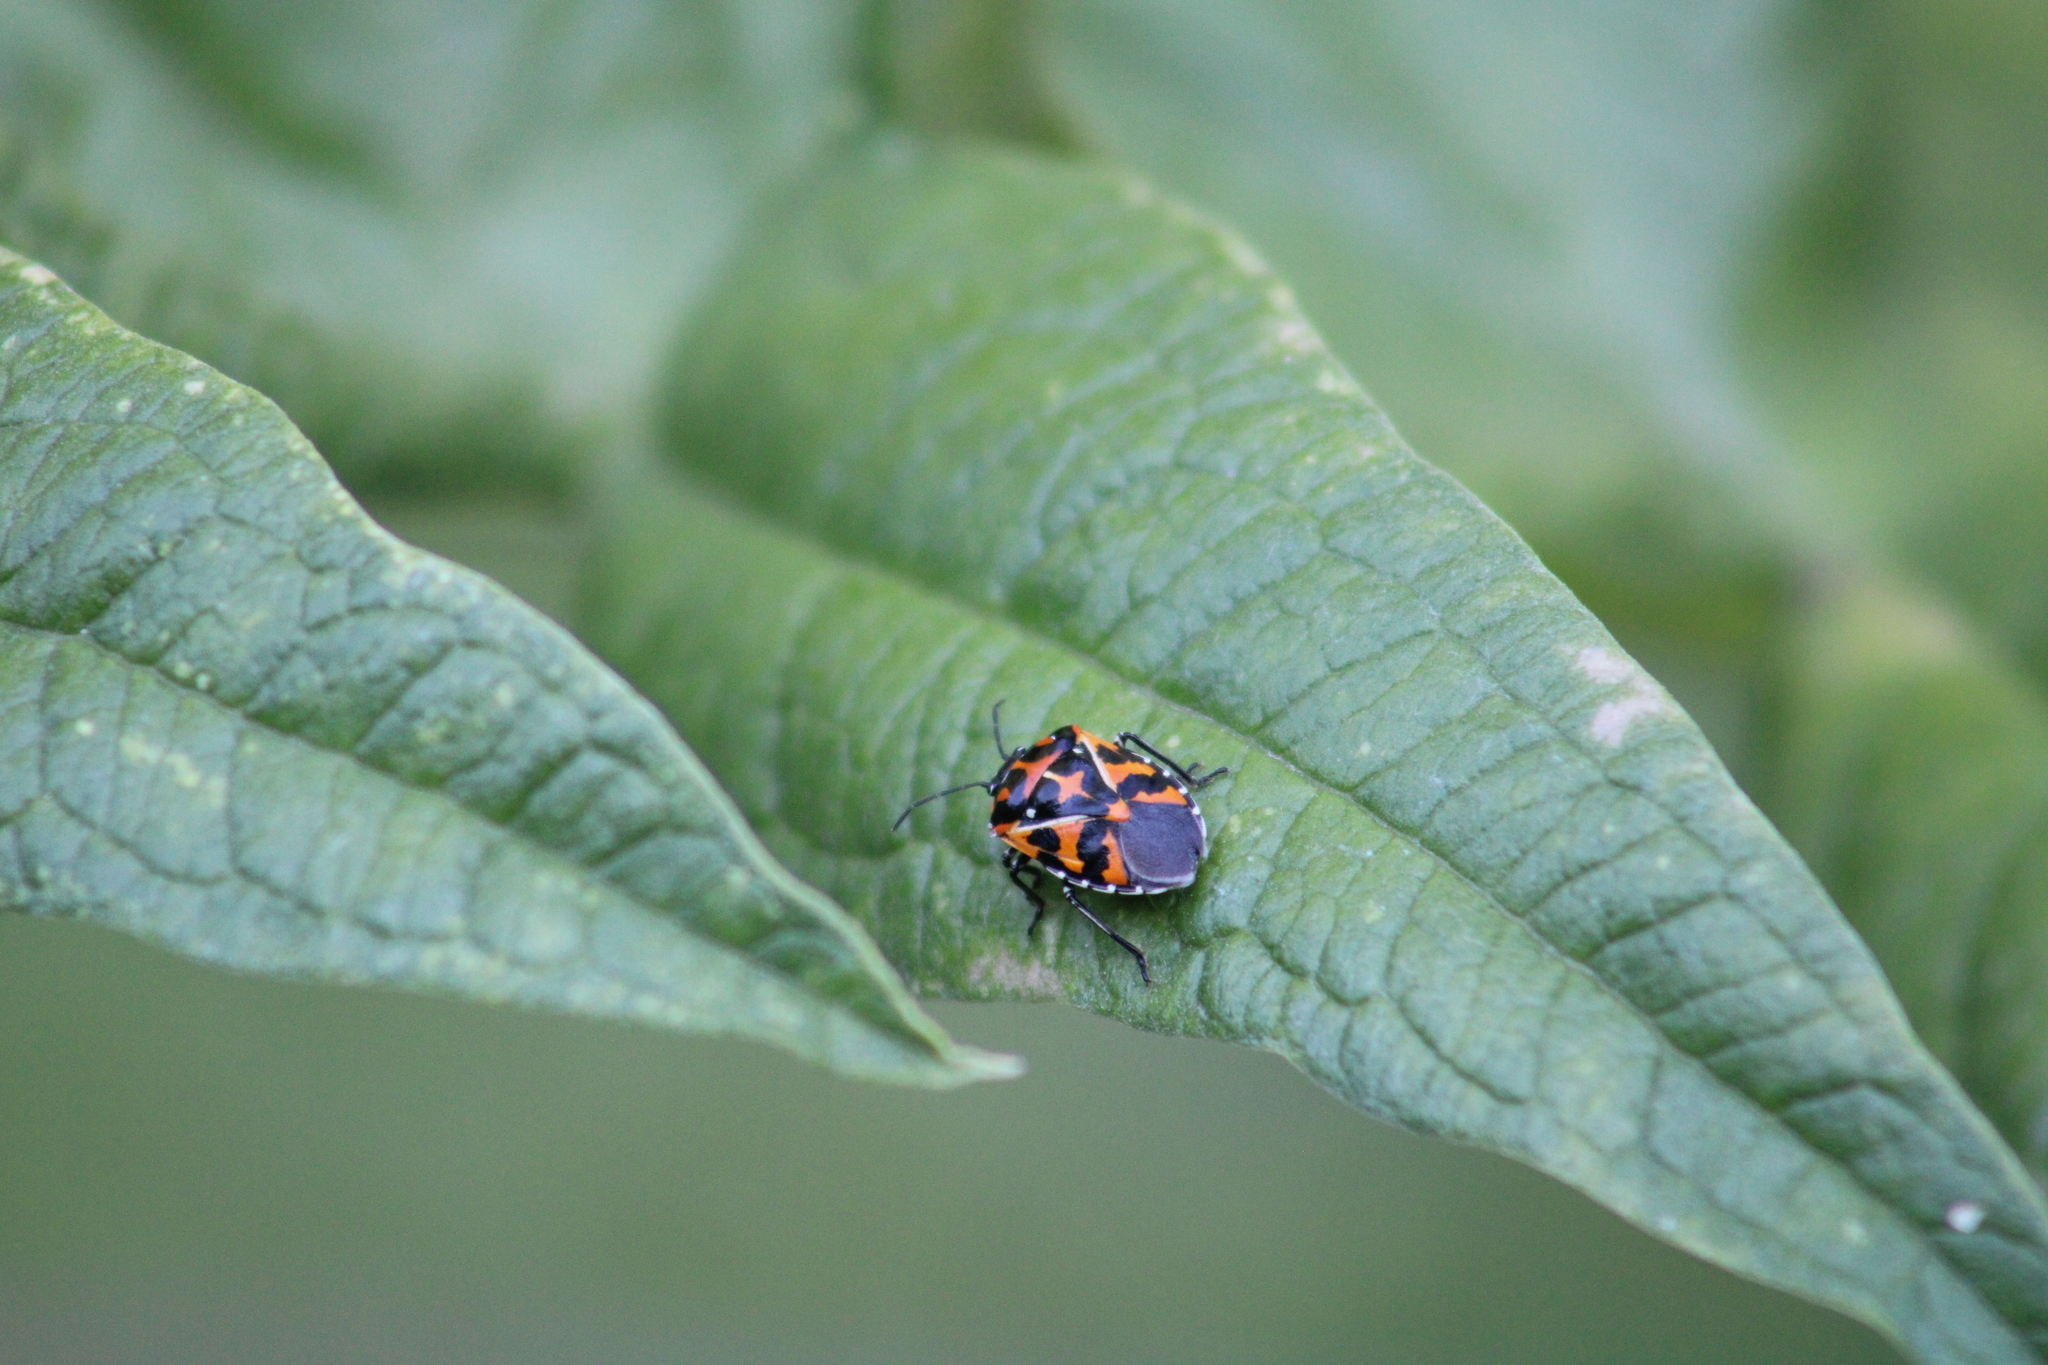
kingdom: Animalia
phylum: Arthropoda
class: Insecta
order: Hemiptera
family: Pentatomidae
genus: Murgantia
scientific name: Murgantia histrionica
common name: Harlequin bug
